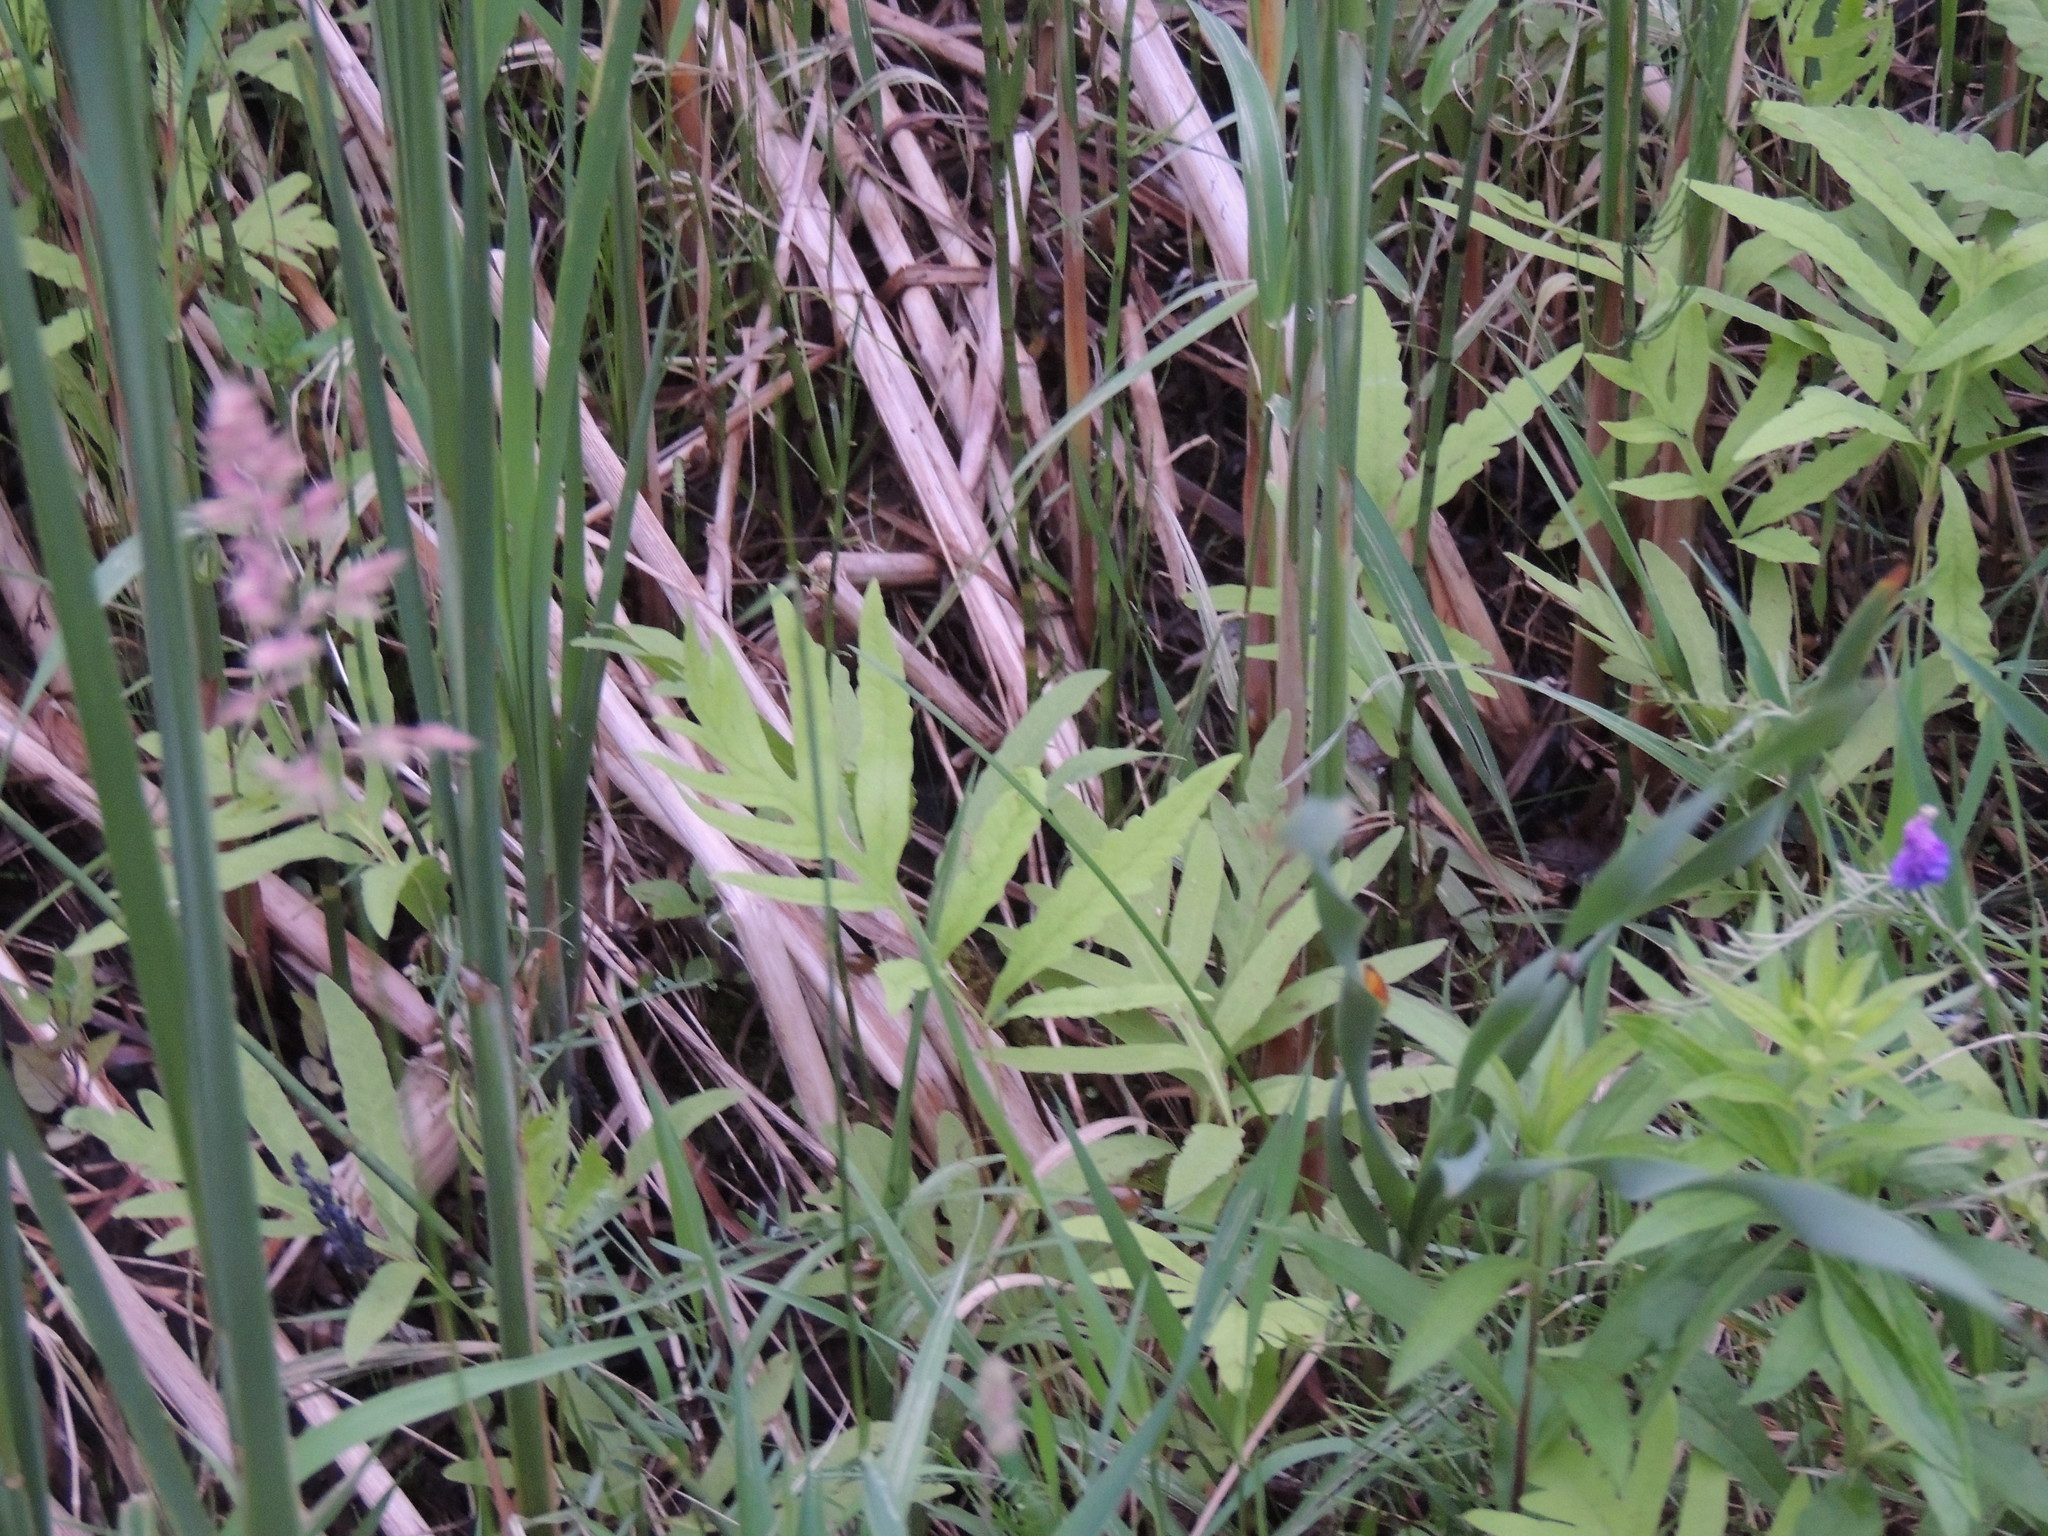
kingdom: Plantae
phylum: Tracheophyta
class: Polypodiopsida
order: Polypodiales
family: Onocleaceae
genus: Onoclea
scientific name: Onoclea sensibilis
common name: Sensitive fern
